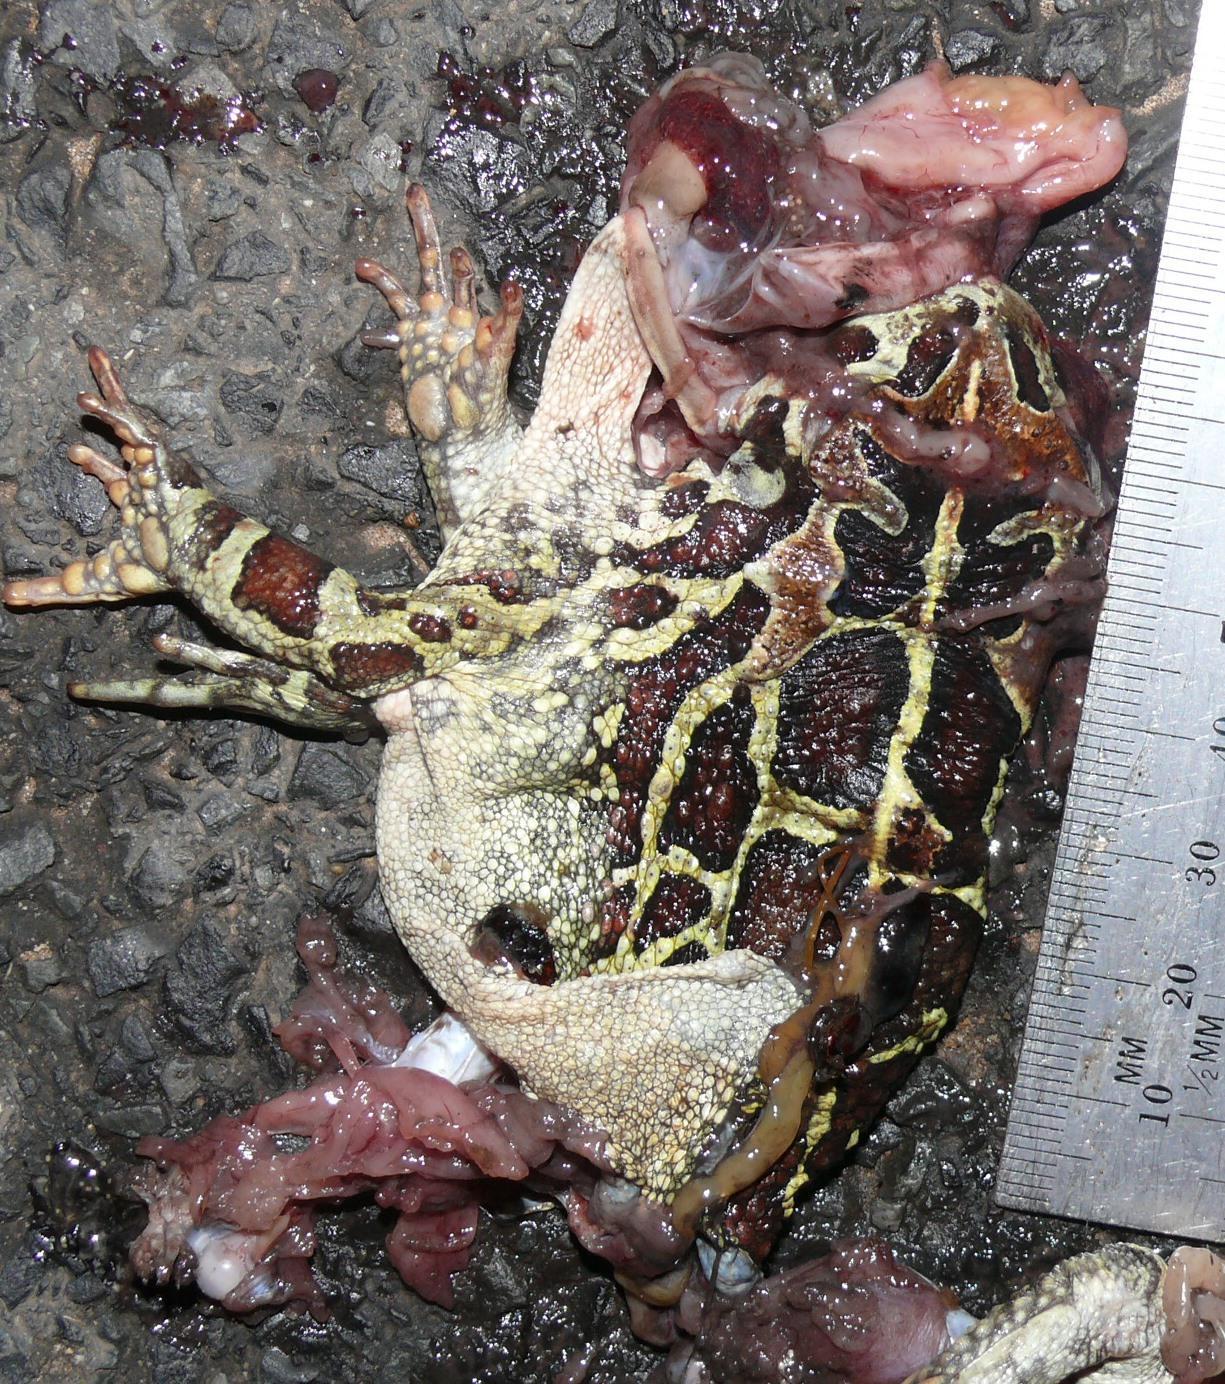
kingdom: Animalia
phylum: Chordata
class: Amphibia
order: Anura
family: Bufonidae
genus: Sclerophrys
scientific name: Sclerophrys pantherina
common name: Panther toad
